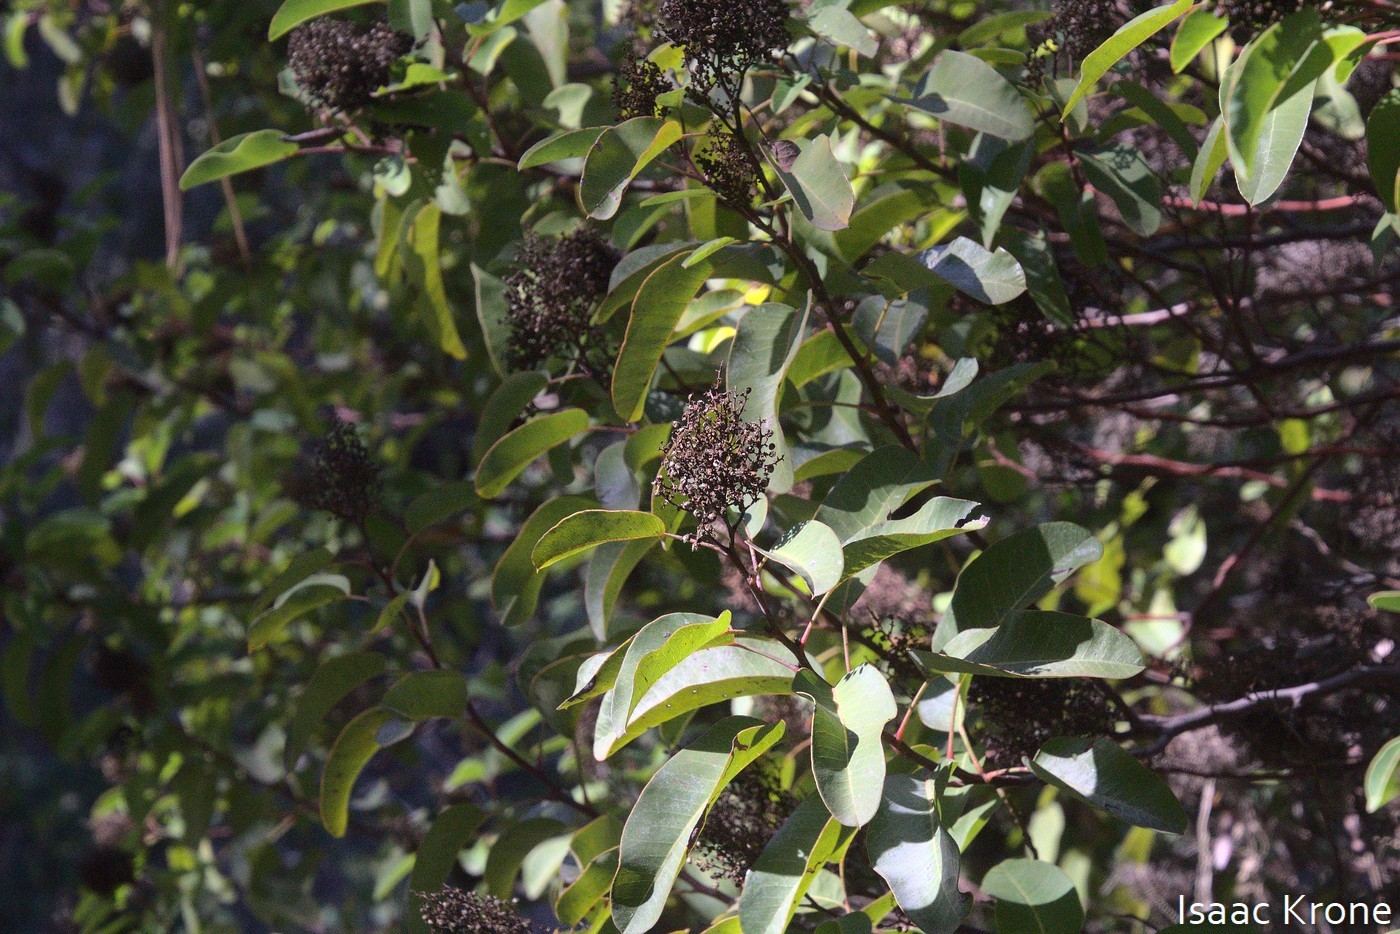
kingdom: Plantae
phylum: Tracheophyta
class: Magnoliopsida
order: Sapindales
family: Anacardiaceae
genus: Malosma
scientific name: Malosma laurina
